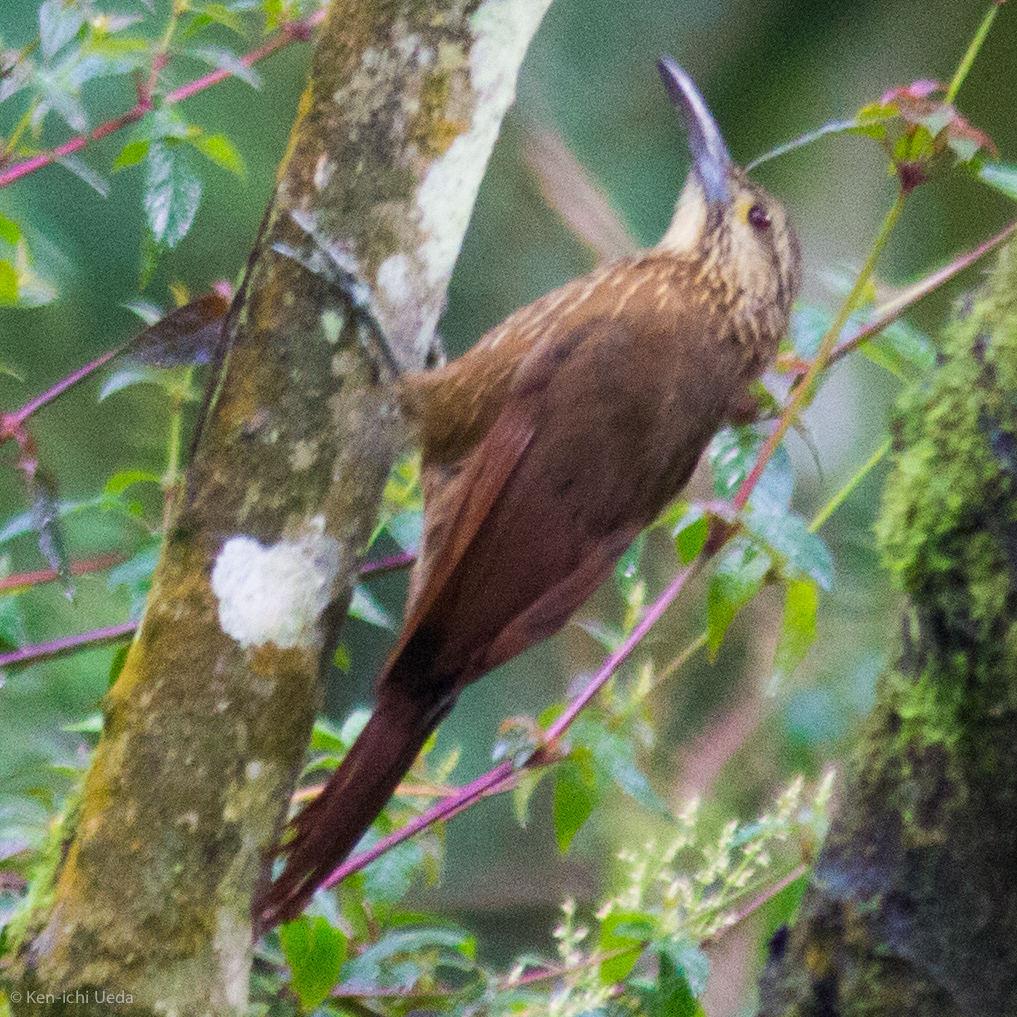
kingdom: Animalia
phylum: Chordata
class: Aves
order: Passeriformes
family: Furnariidae
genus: Xiphocolaptes
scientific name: Xiphocolaptes promeropirhynchus
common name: Strong-billed woodcreeper
